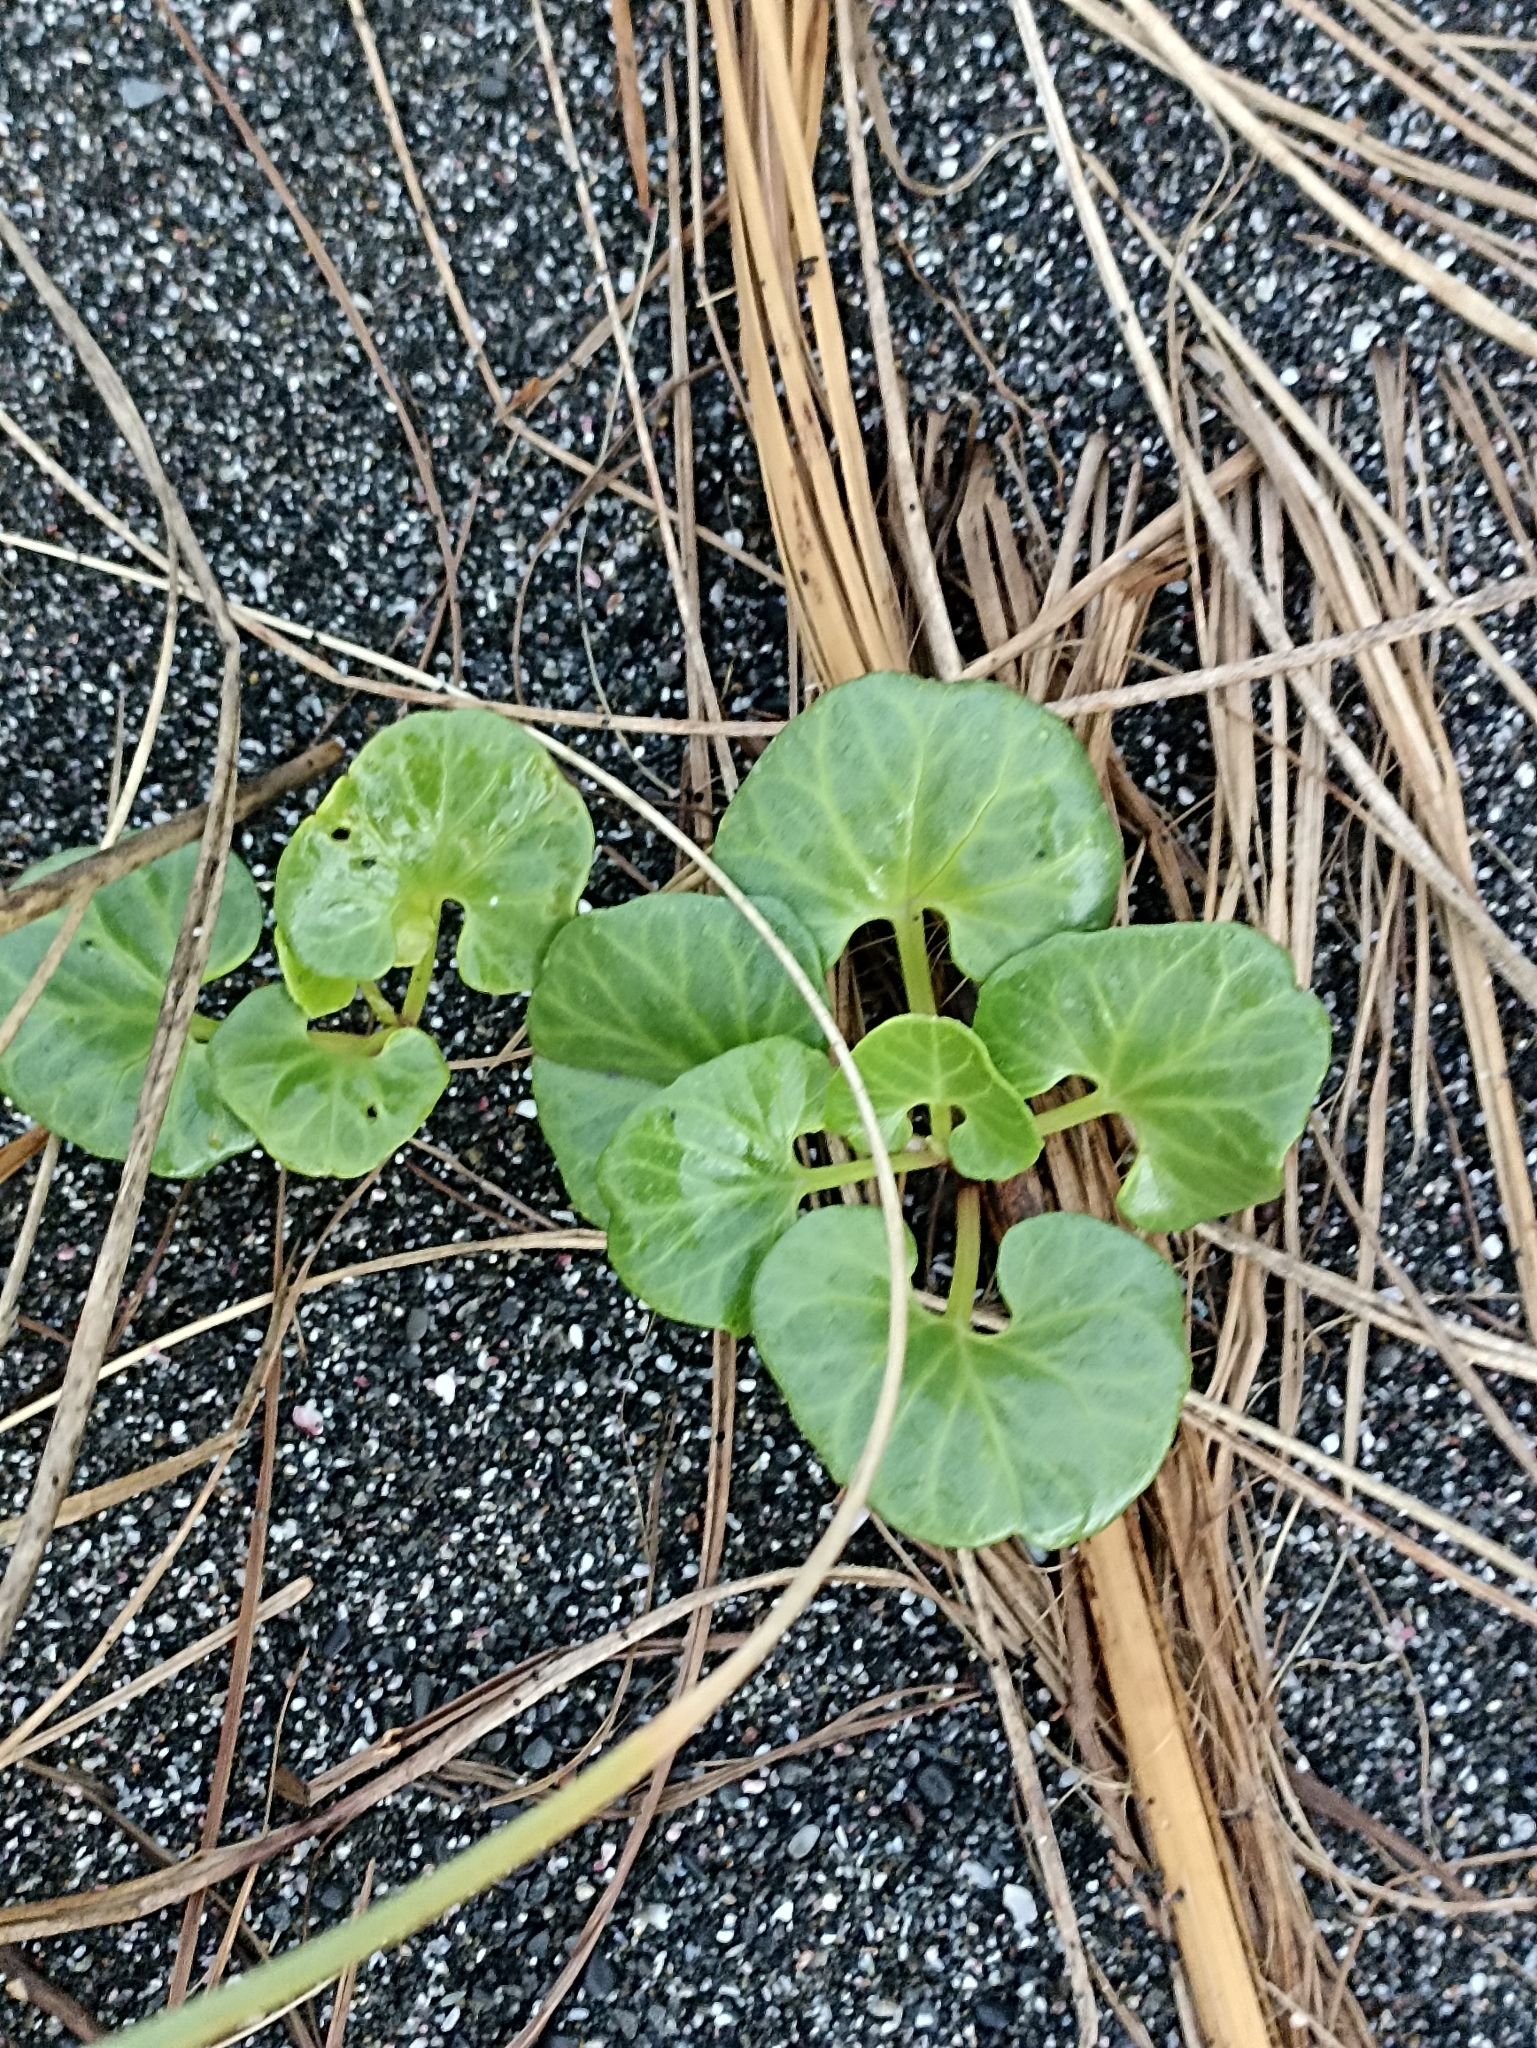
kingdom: Plantae
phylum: Tracheophyta
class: Magnoliopsida
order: Solanales
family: Convolvulaceae
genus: Calystegia
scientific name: Calystegia soldanella
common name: Sea bindweed
